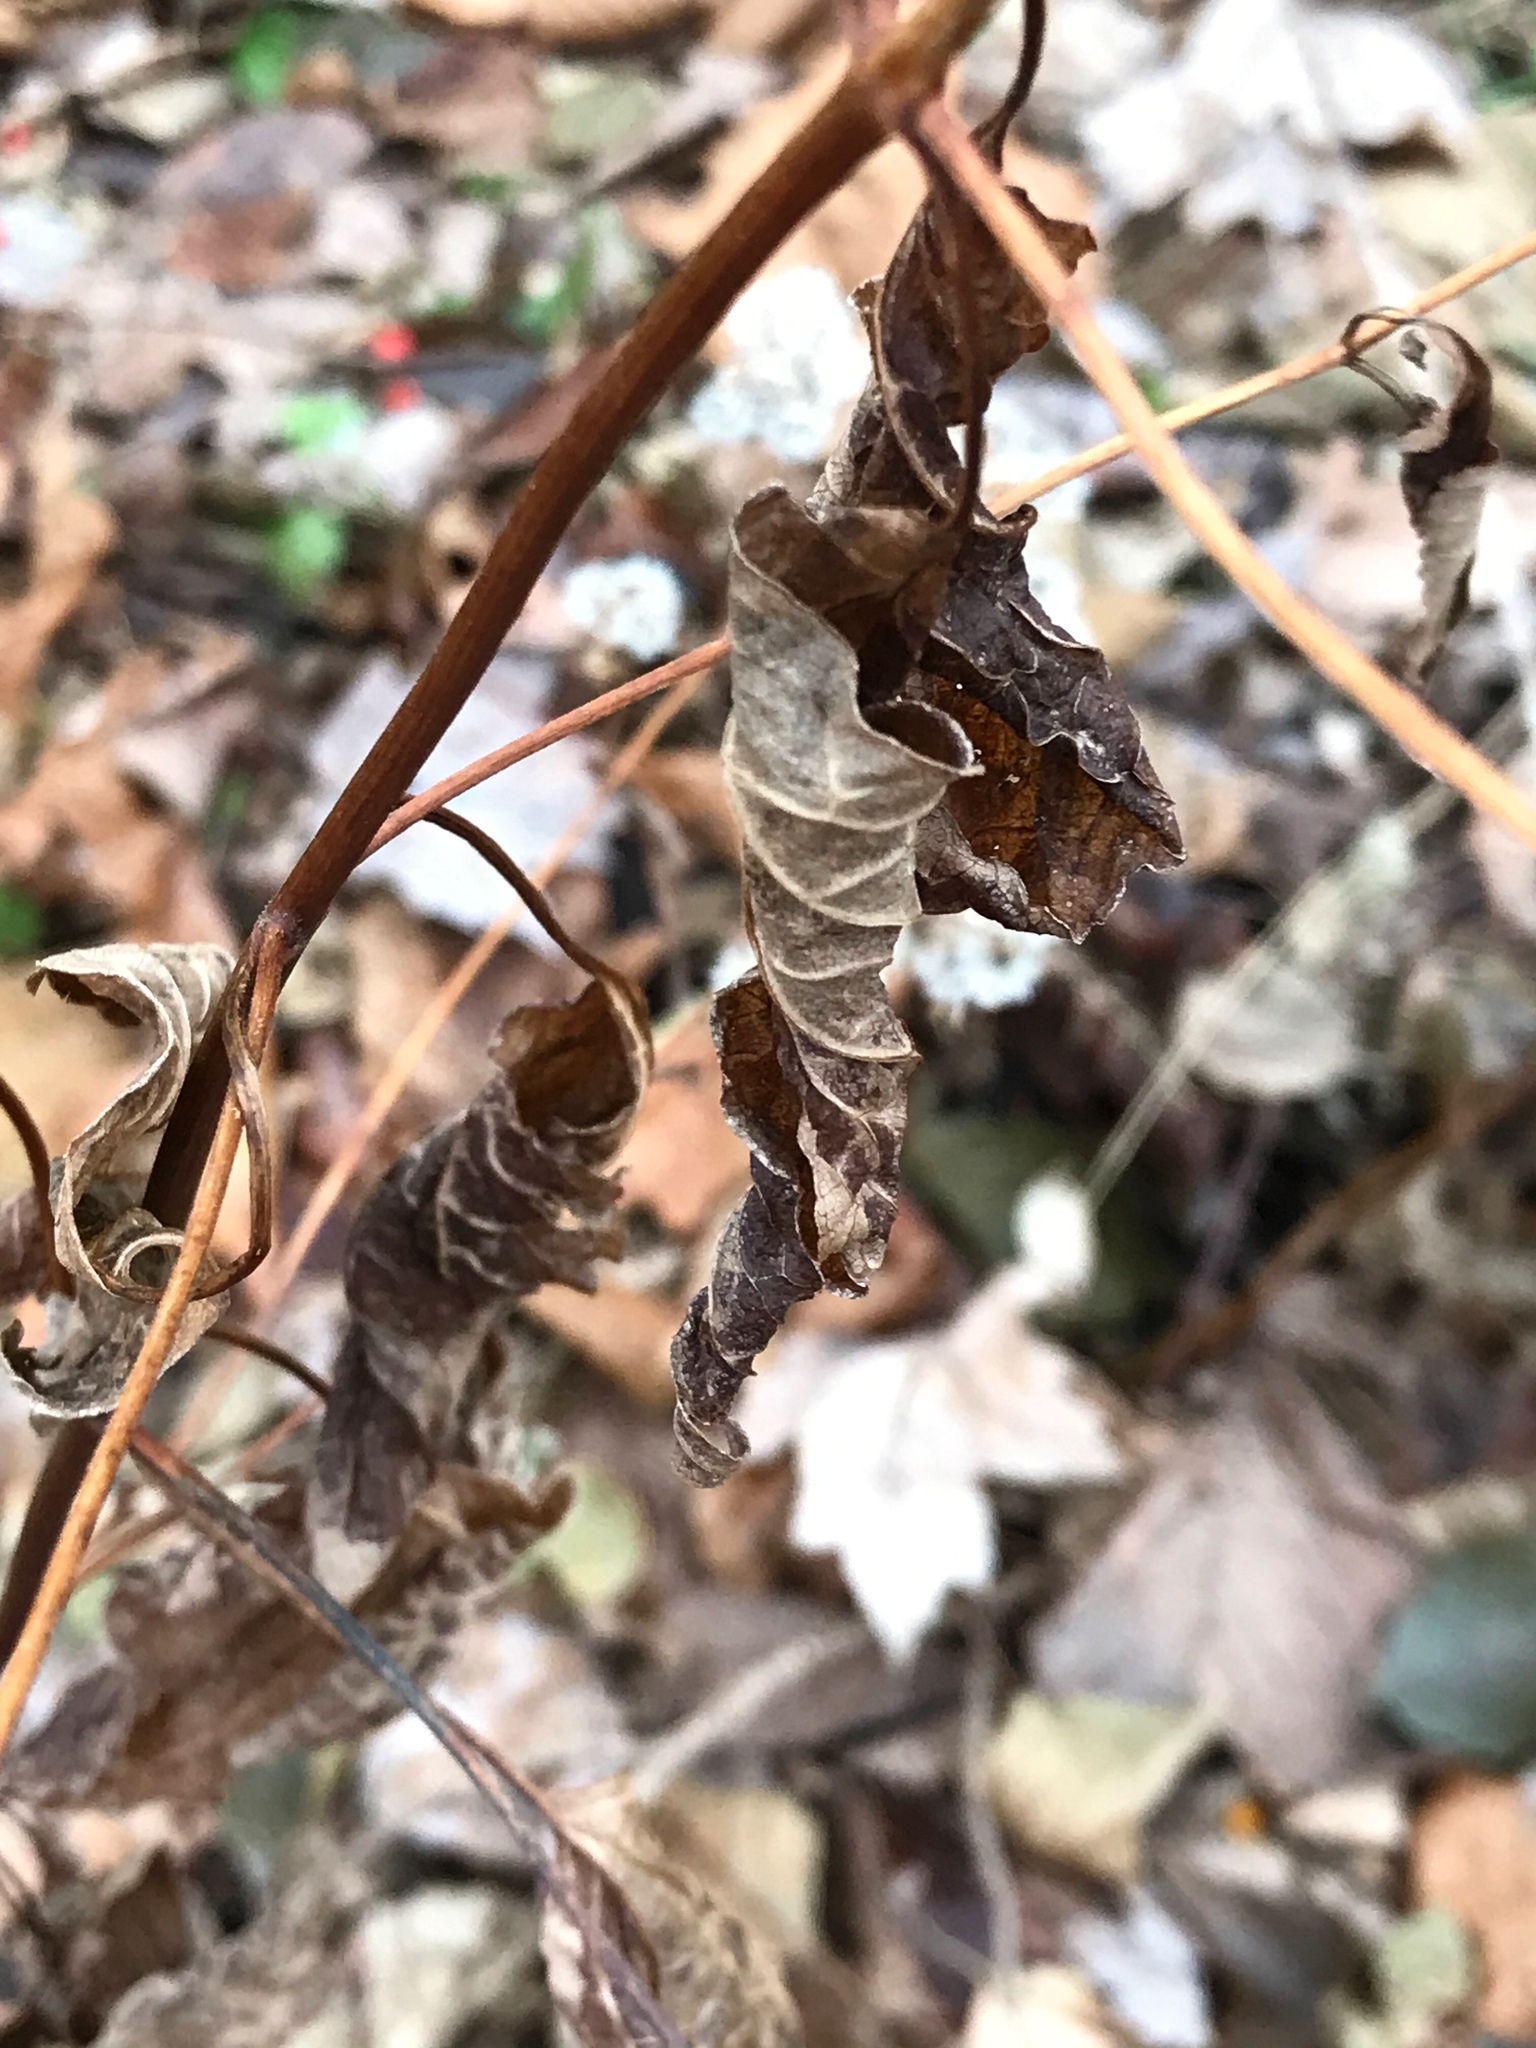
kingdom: Plantae
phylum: Tracheophyta
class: Magnoliopsida
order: Asterales
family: Asteraceae
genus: Ageratina
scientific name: Ageratina altissima
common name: White snakeroot
